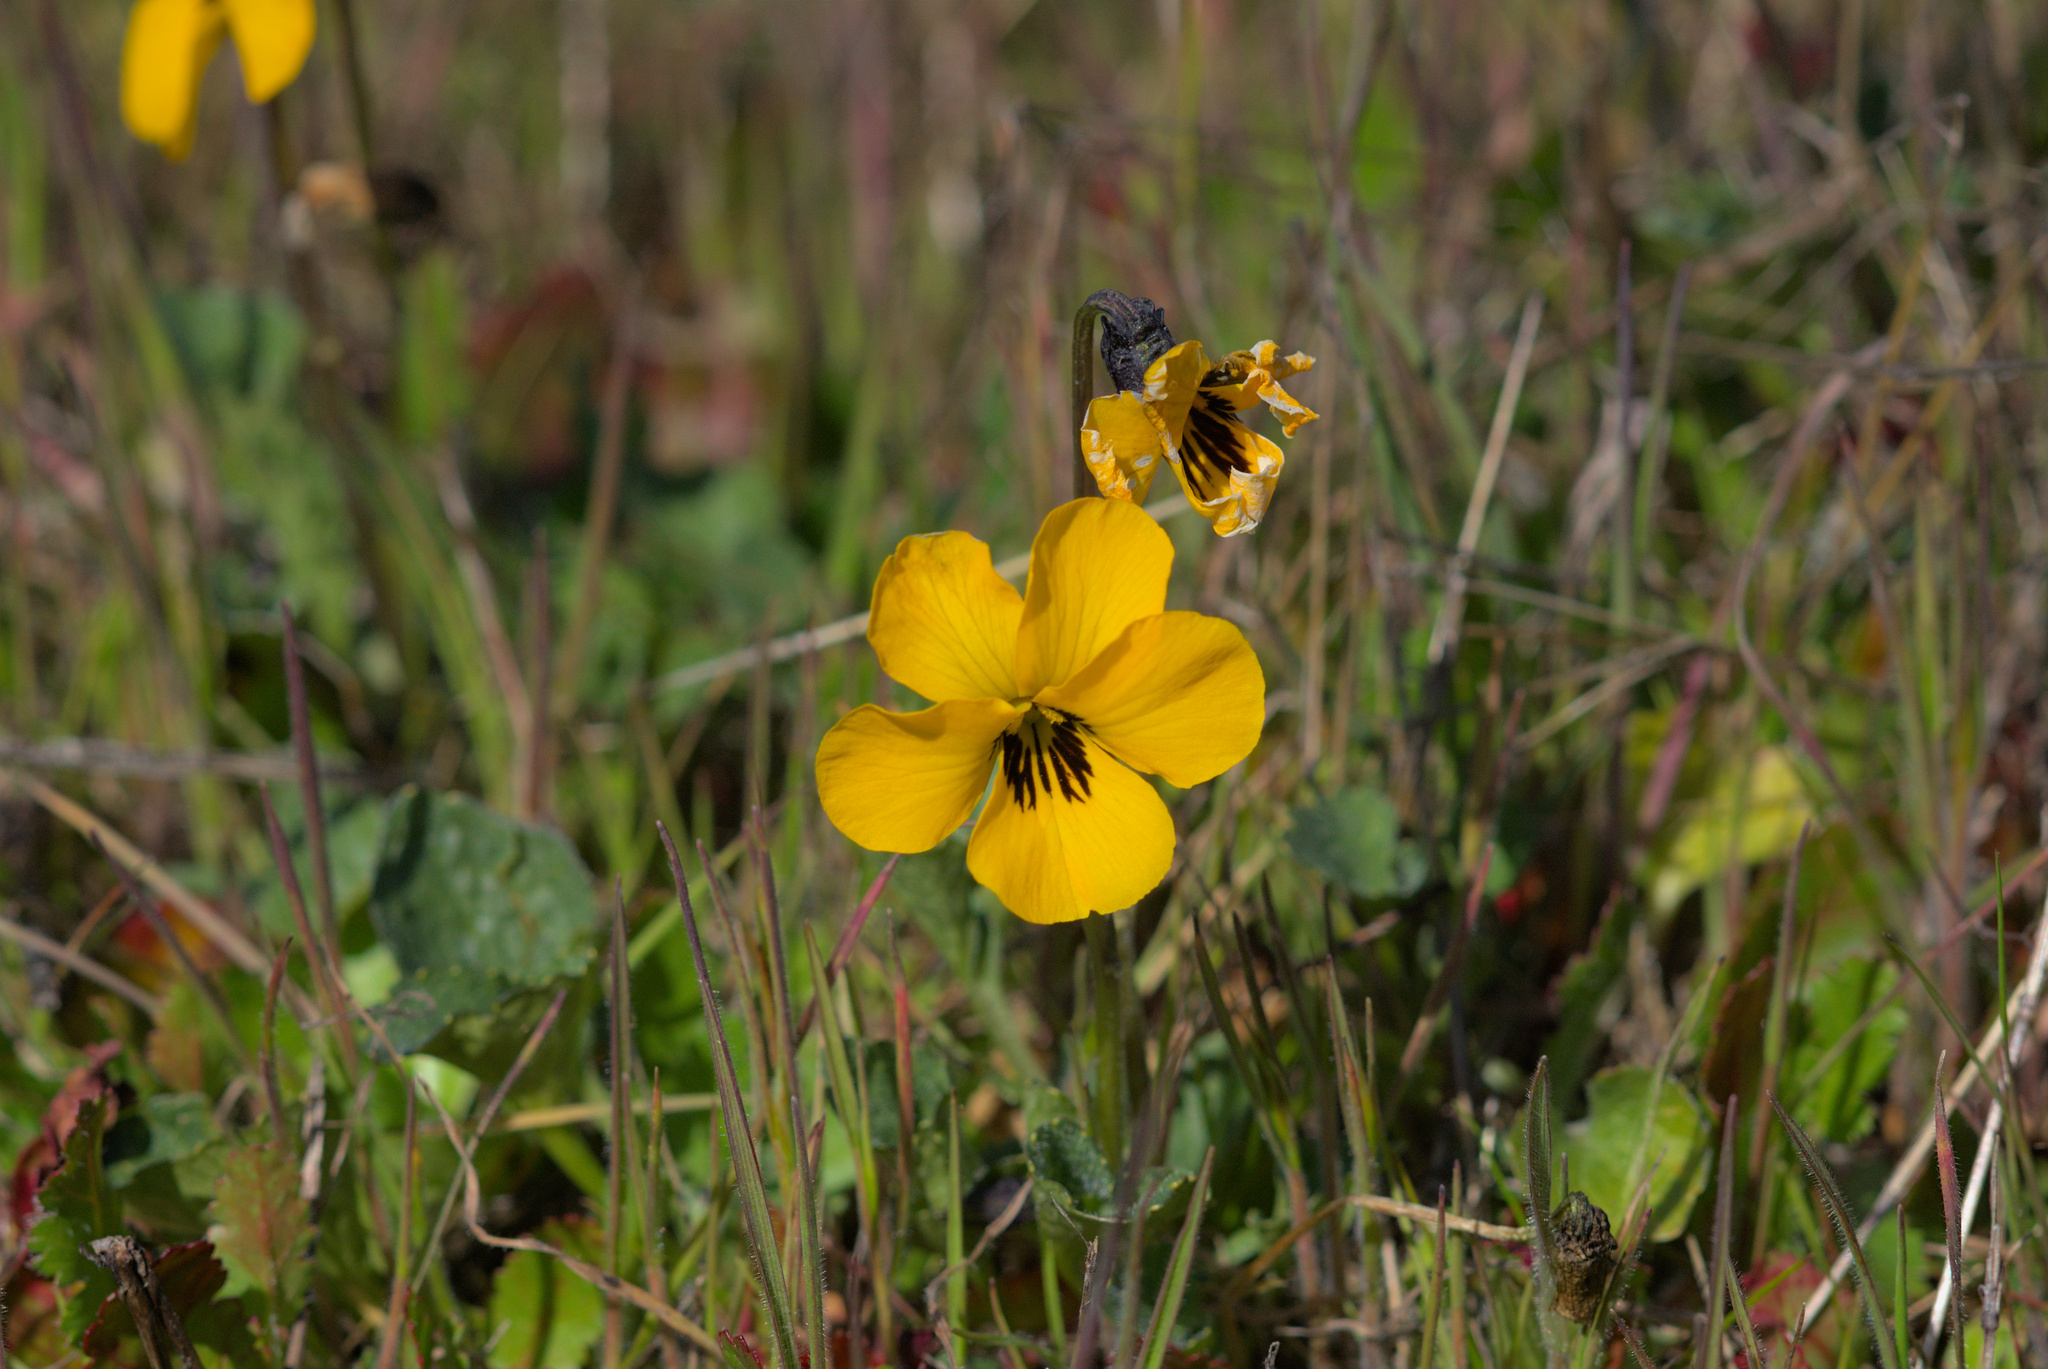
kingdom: Plantae
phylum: Tracheophyta
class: Magnoliopsida
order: Malpighiales
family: Violaceae
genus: Viola
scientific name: Viola pedunculata
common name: California golden violet
